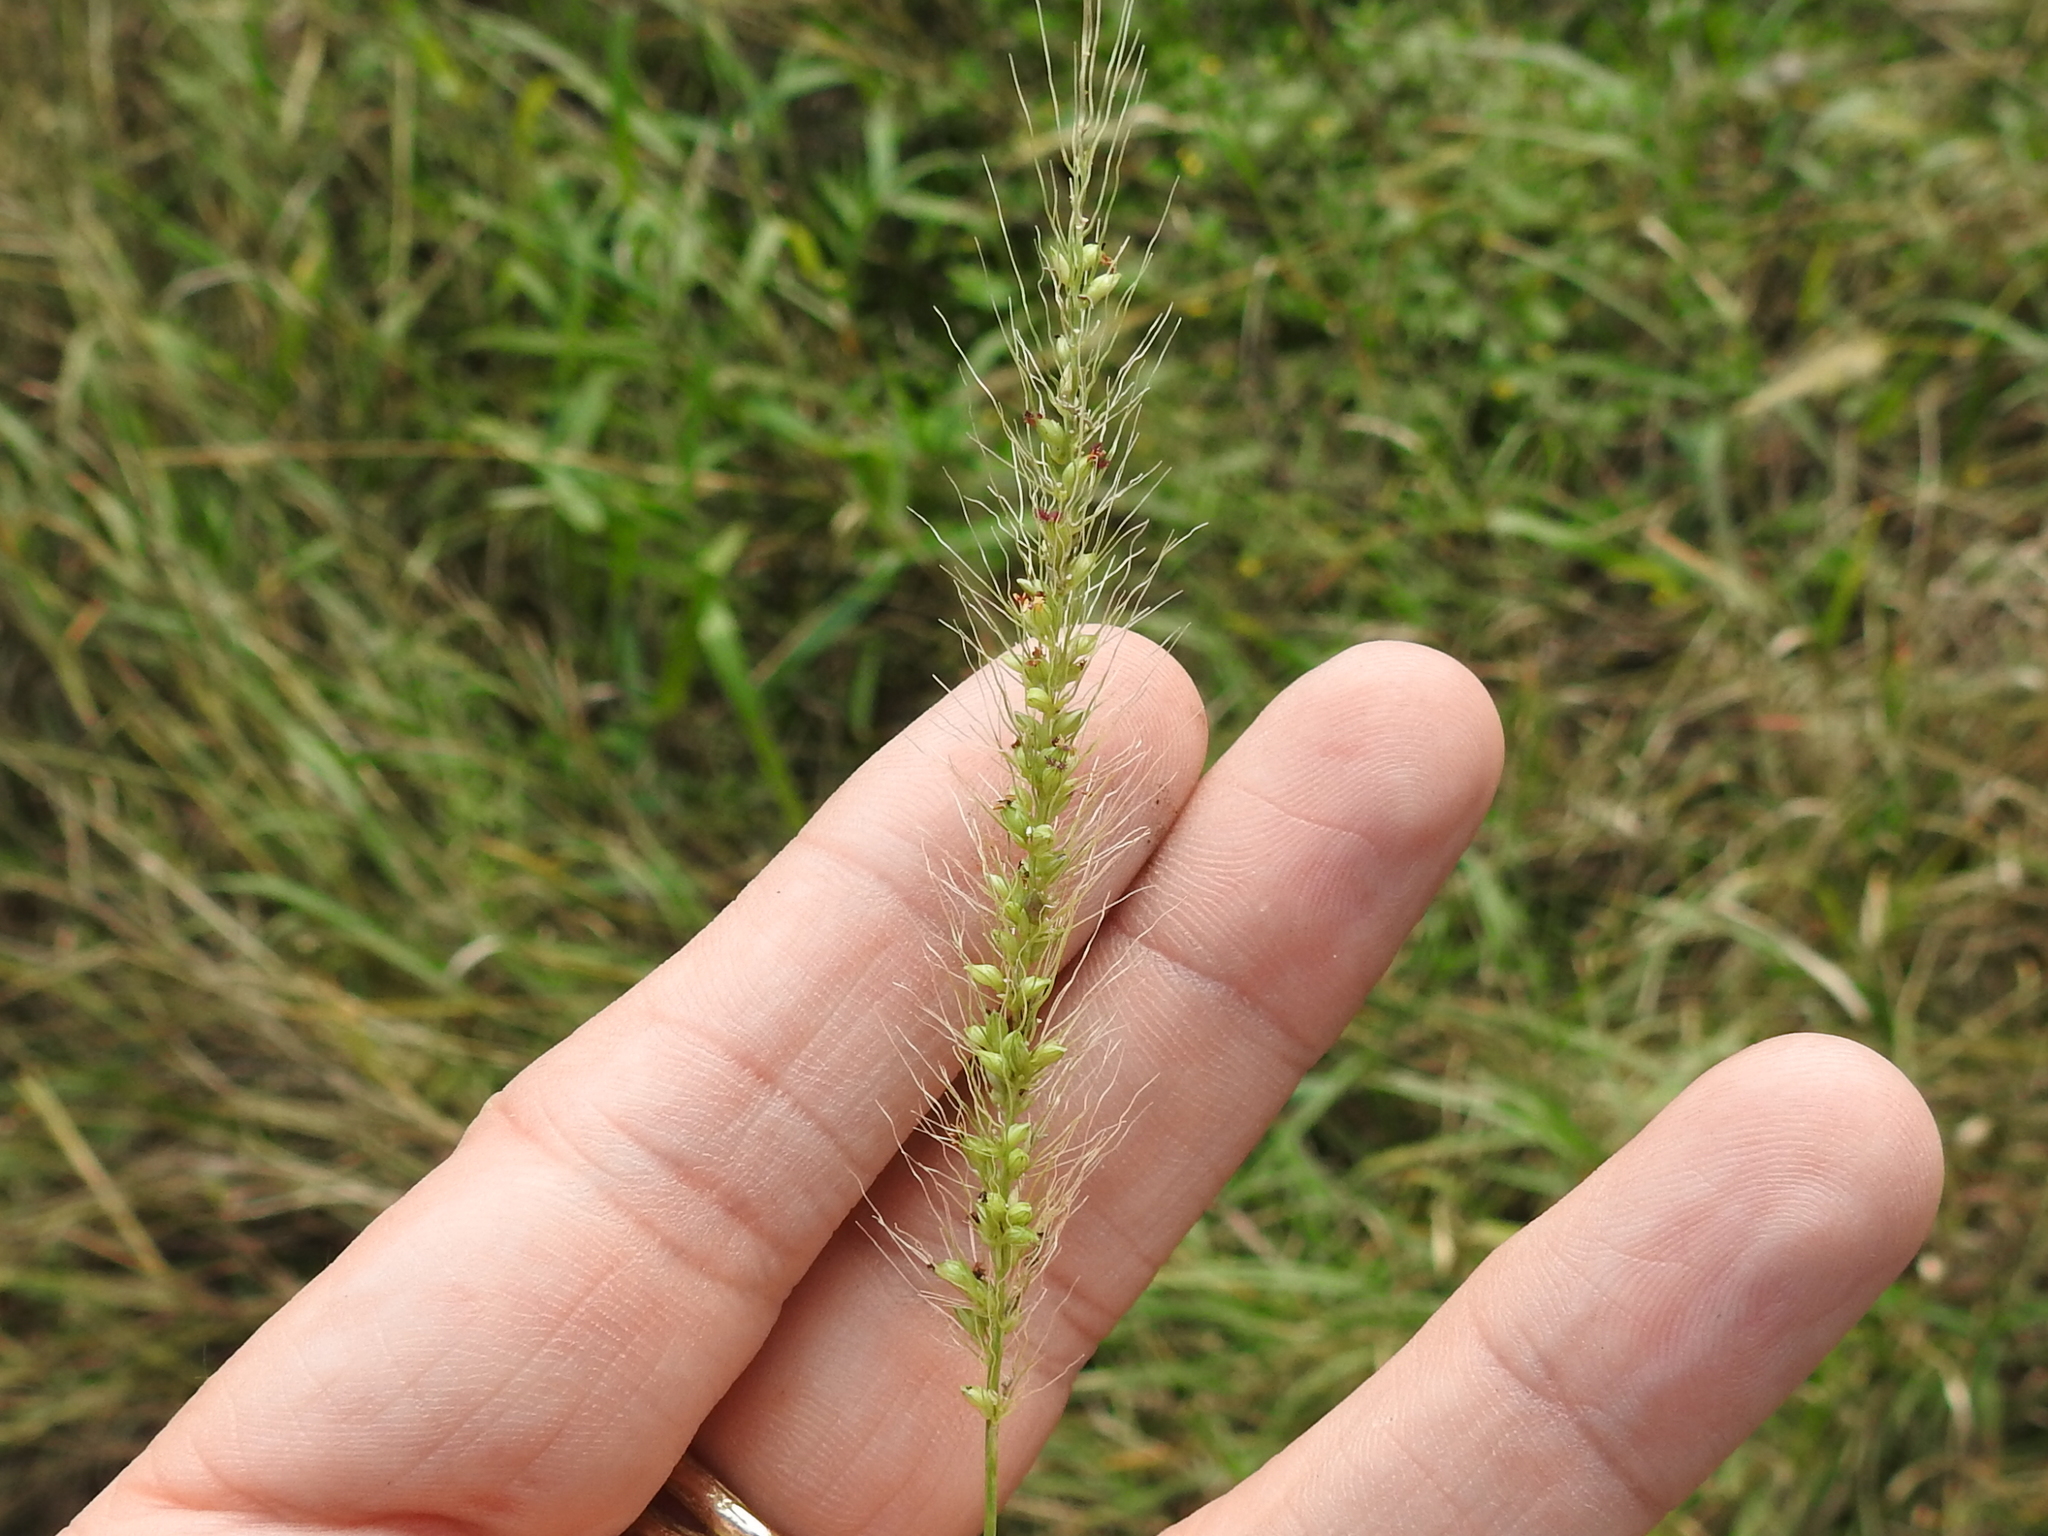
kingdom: Plantae
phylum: Tracheophyta
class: Liliopsida
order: Poales
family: Poaceae
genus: Setaria
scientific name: Setaria scheelei
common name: Southwestern bristle grass
